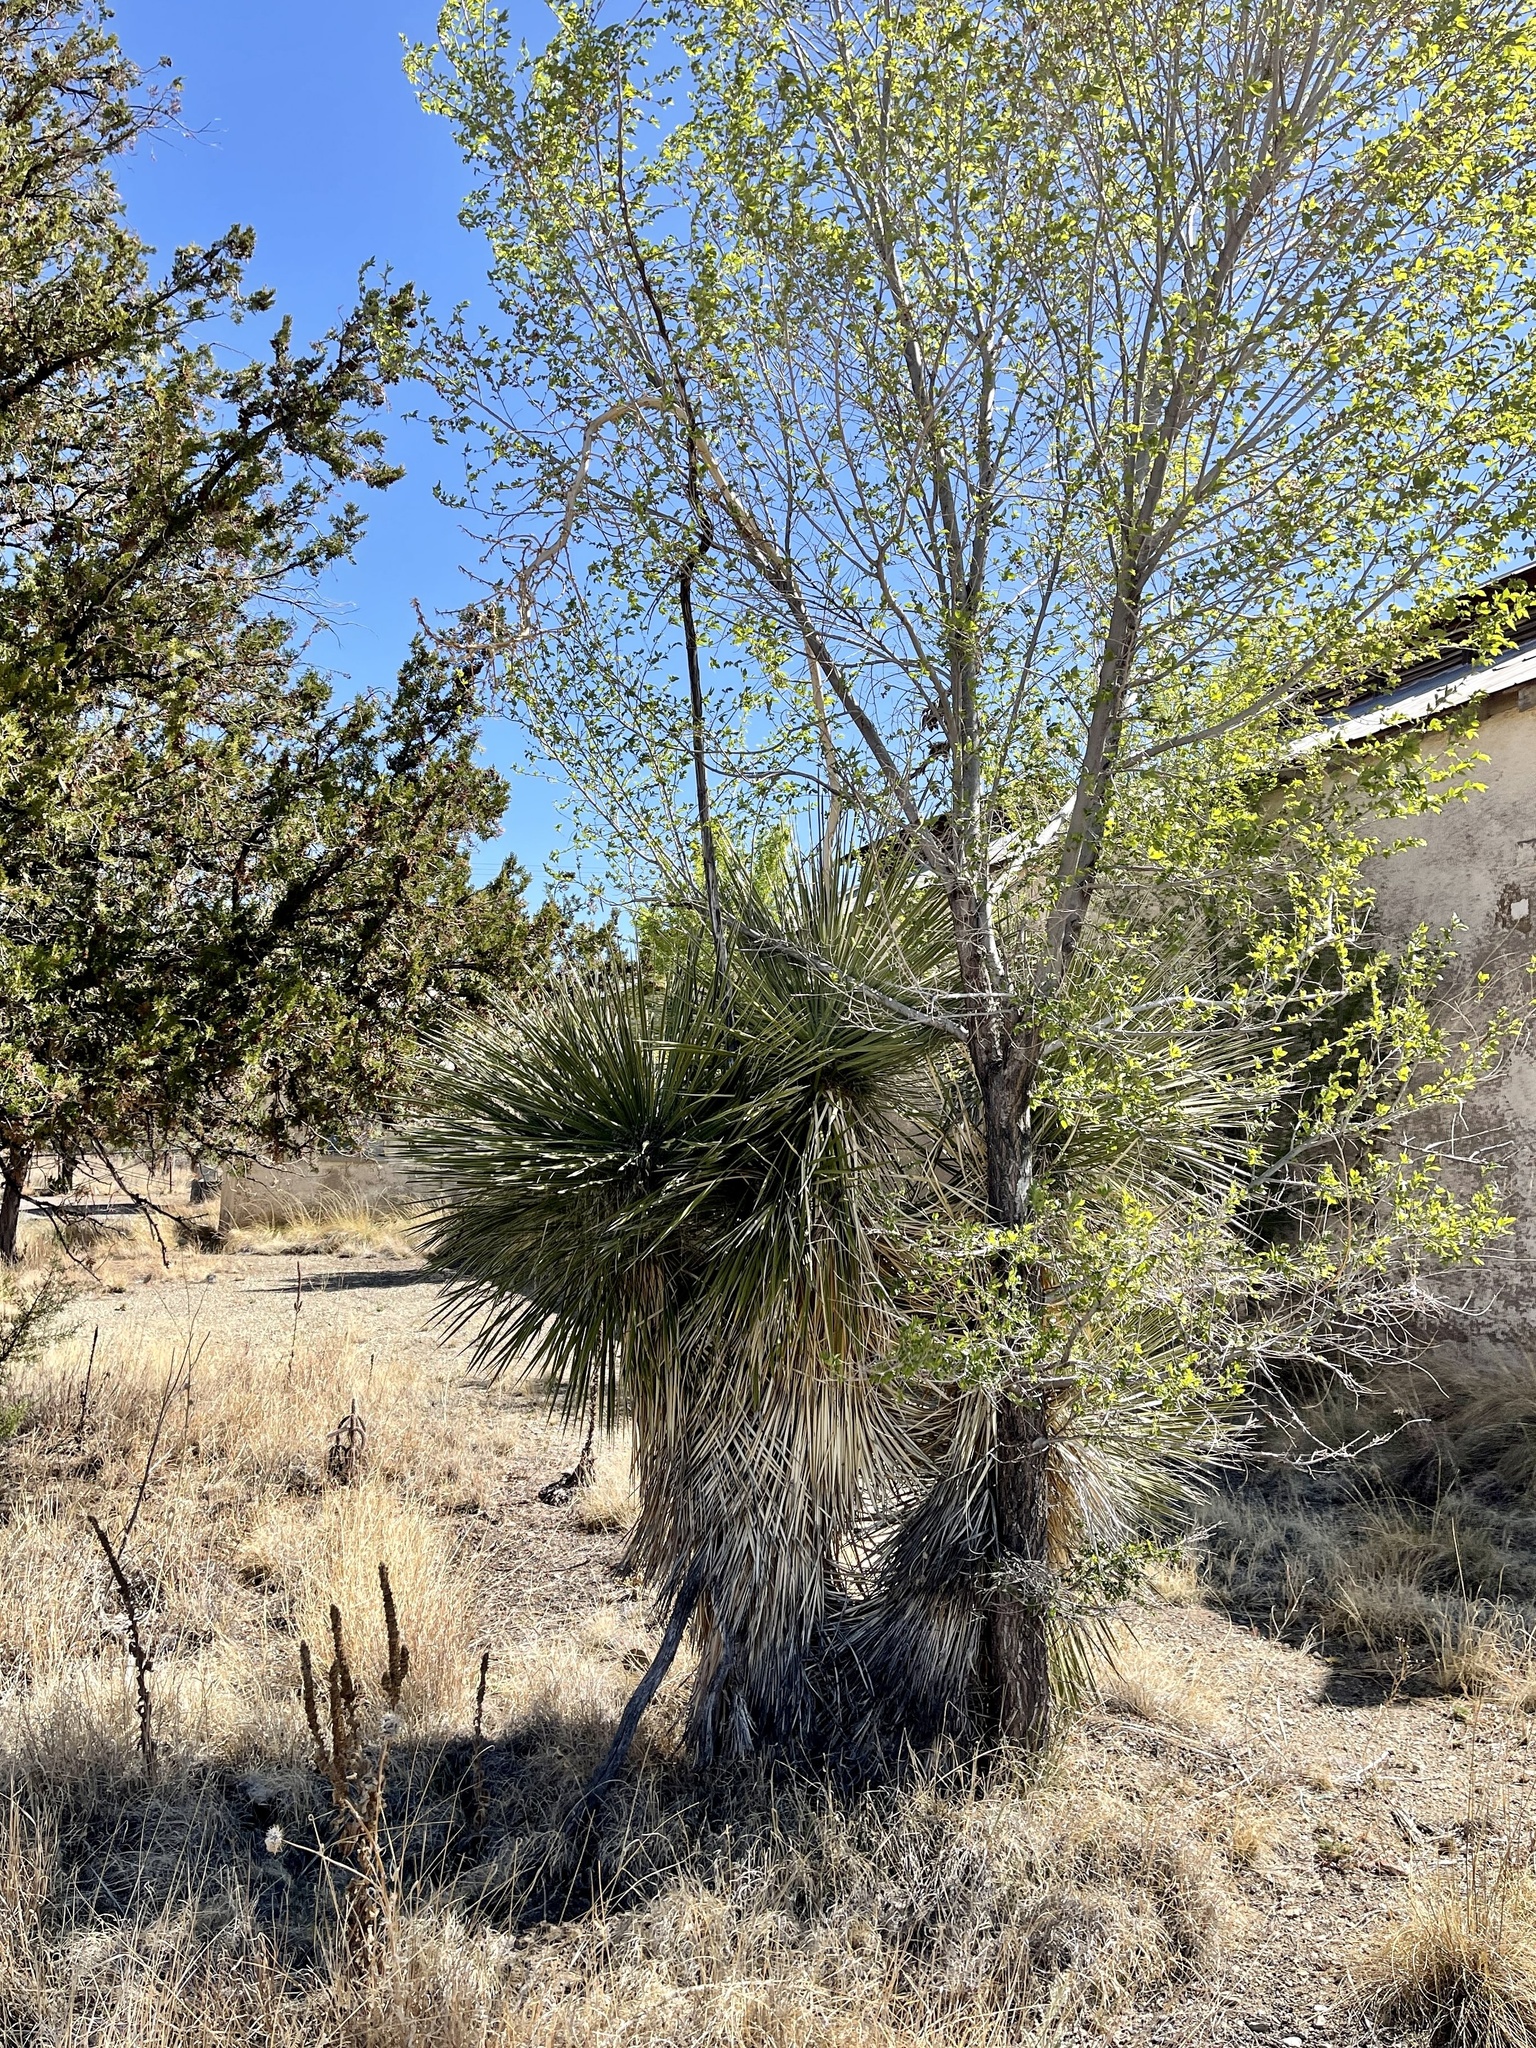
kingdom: Plantae
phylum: Tracheophyta
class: Liliopsida
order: Asparagales
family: Asparagaceae
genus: Yucca
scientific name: Yucca elata
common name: Palmella
